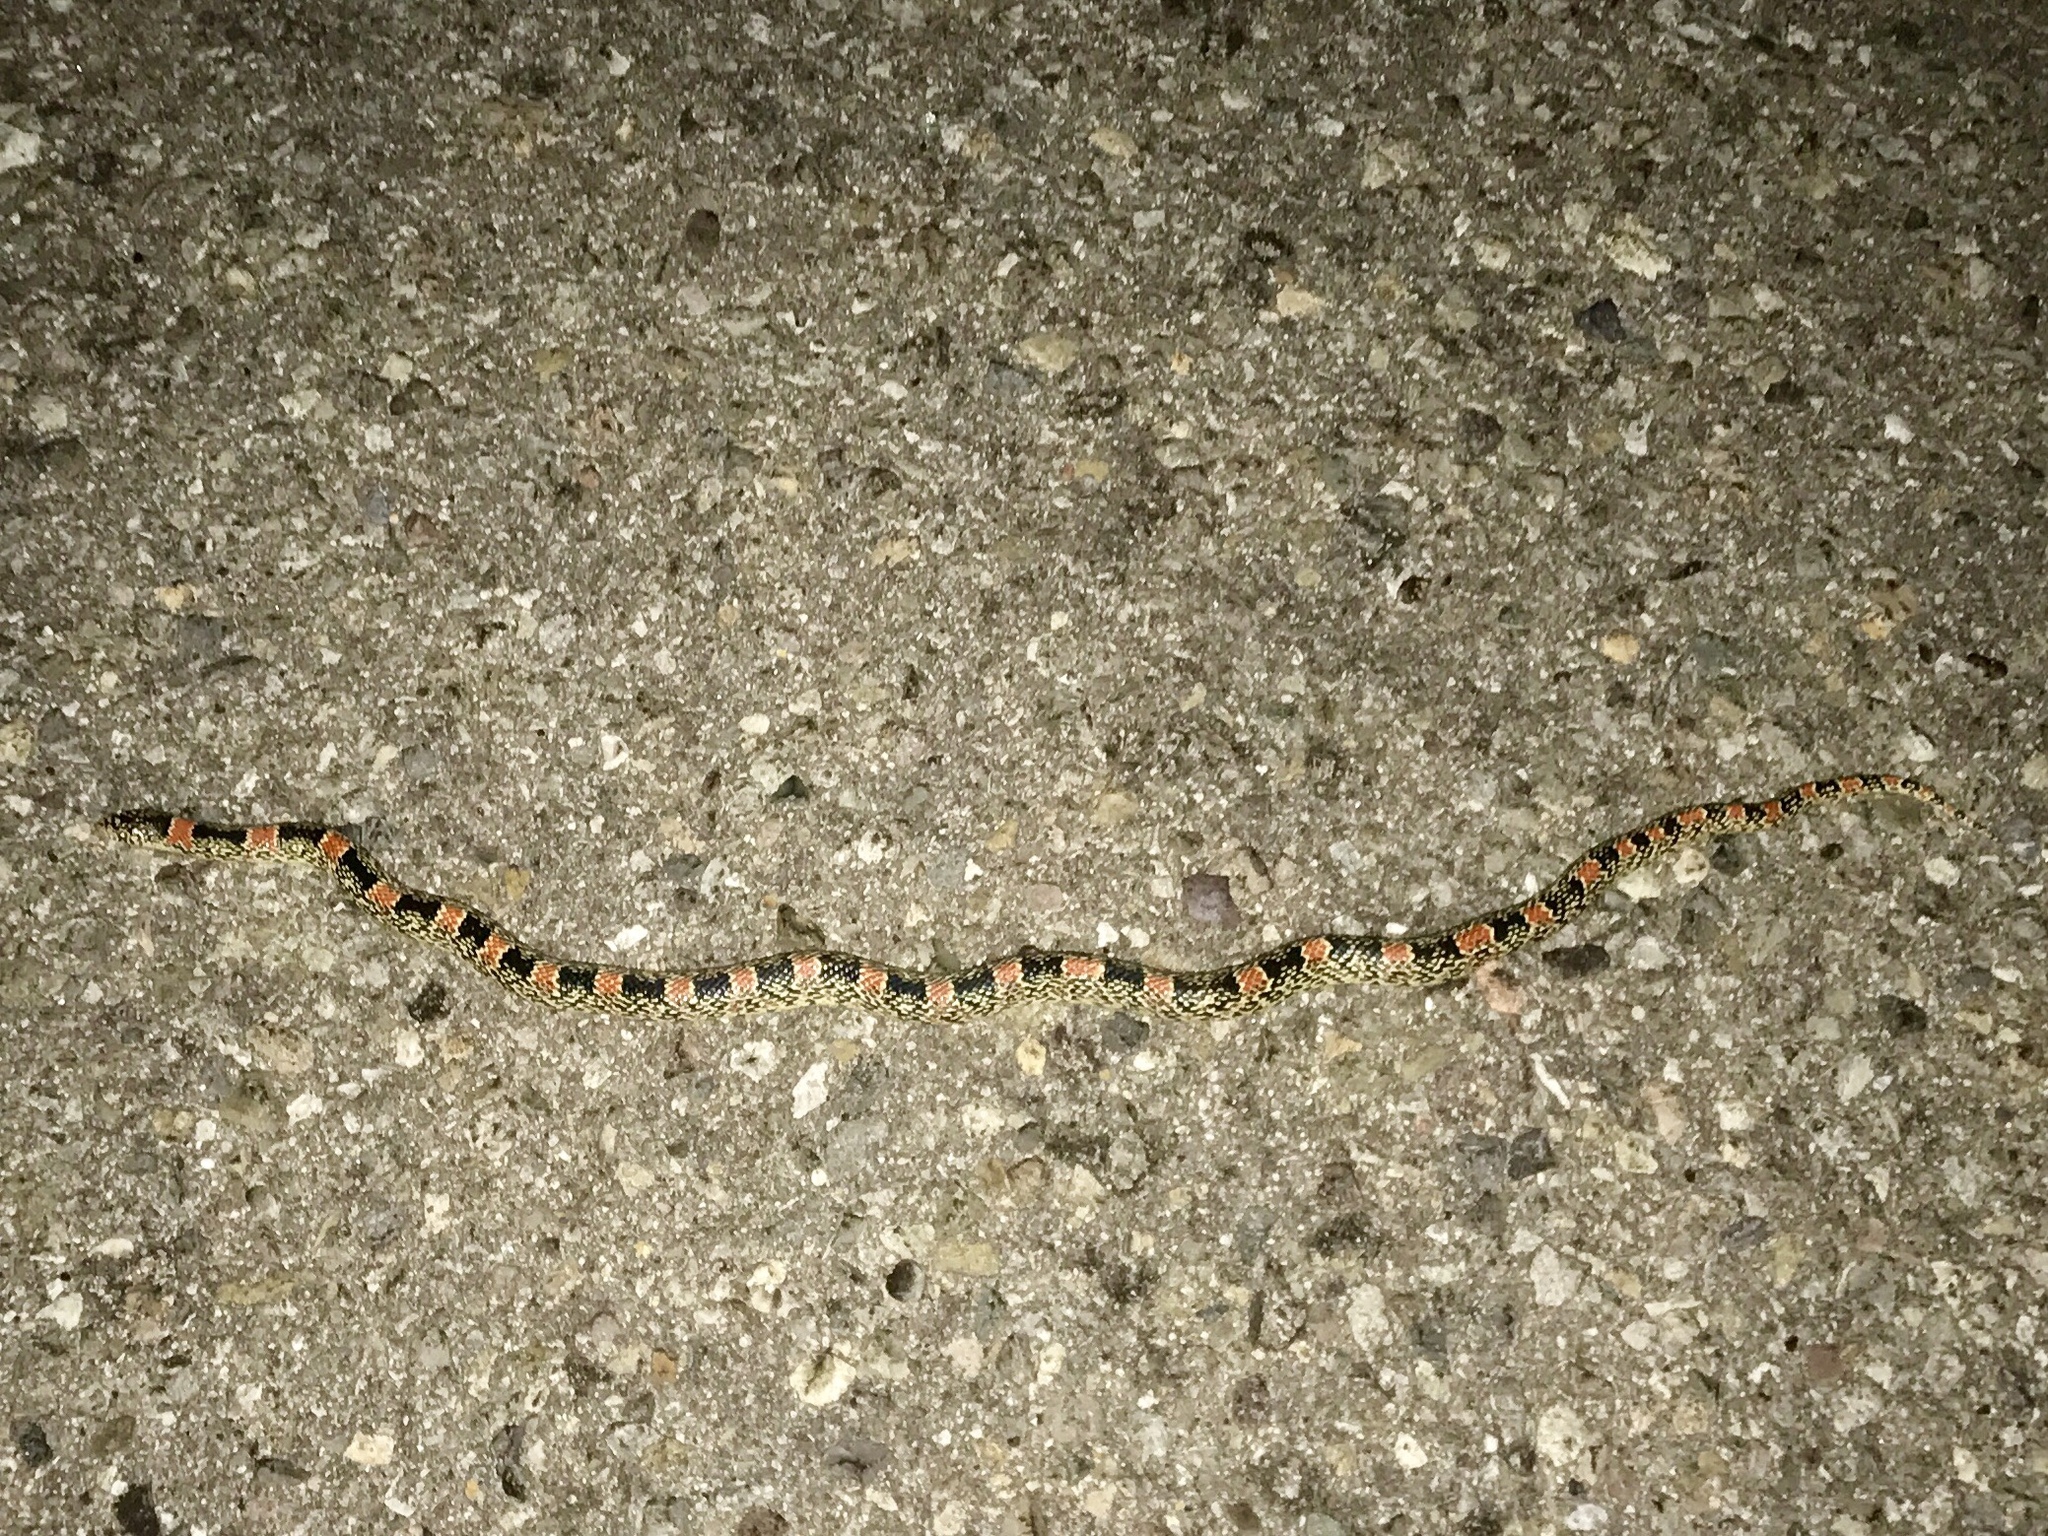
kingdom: Animalia
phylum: Chordata
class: Squamata
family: Colubridae
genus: Rhinocheilus
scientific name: Rhinocheilus lecontei
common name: Longnose snake
